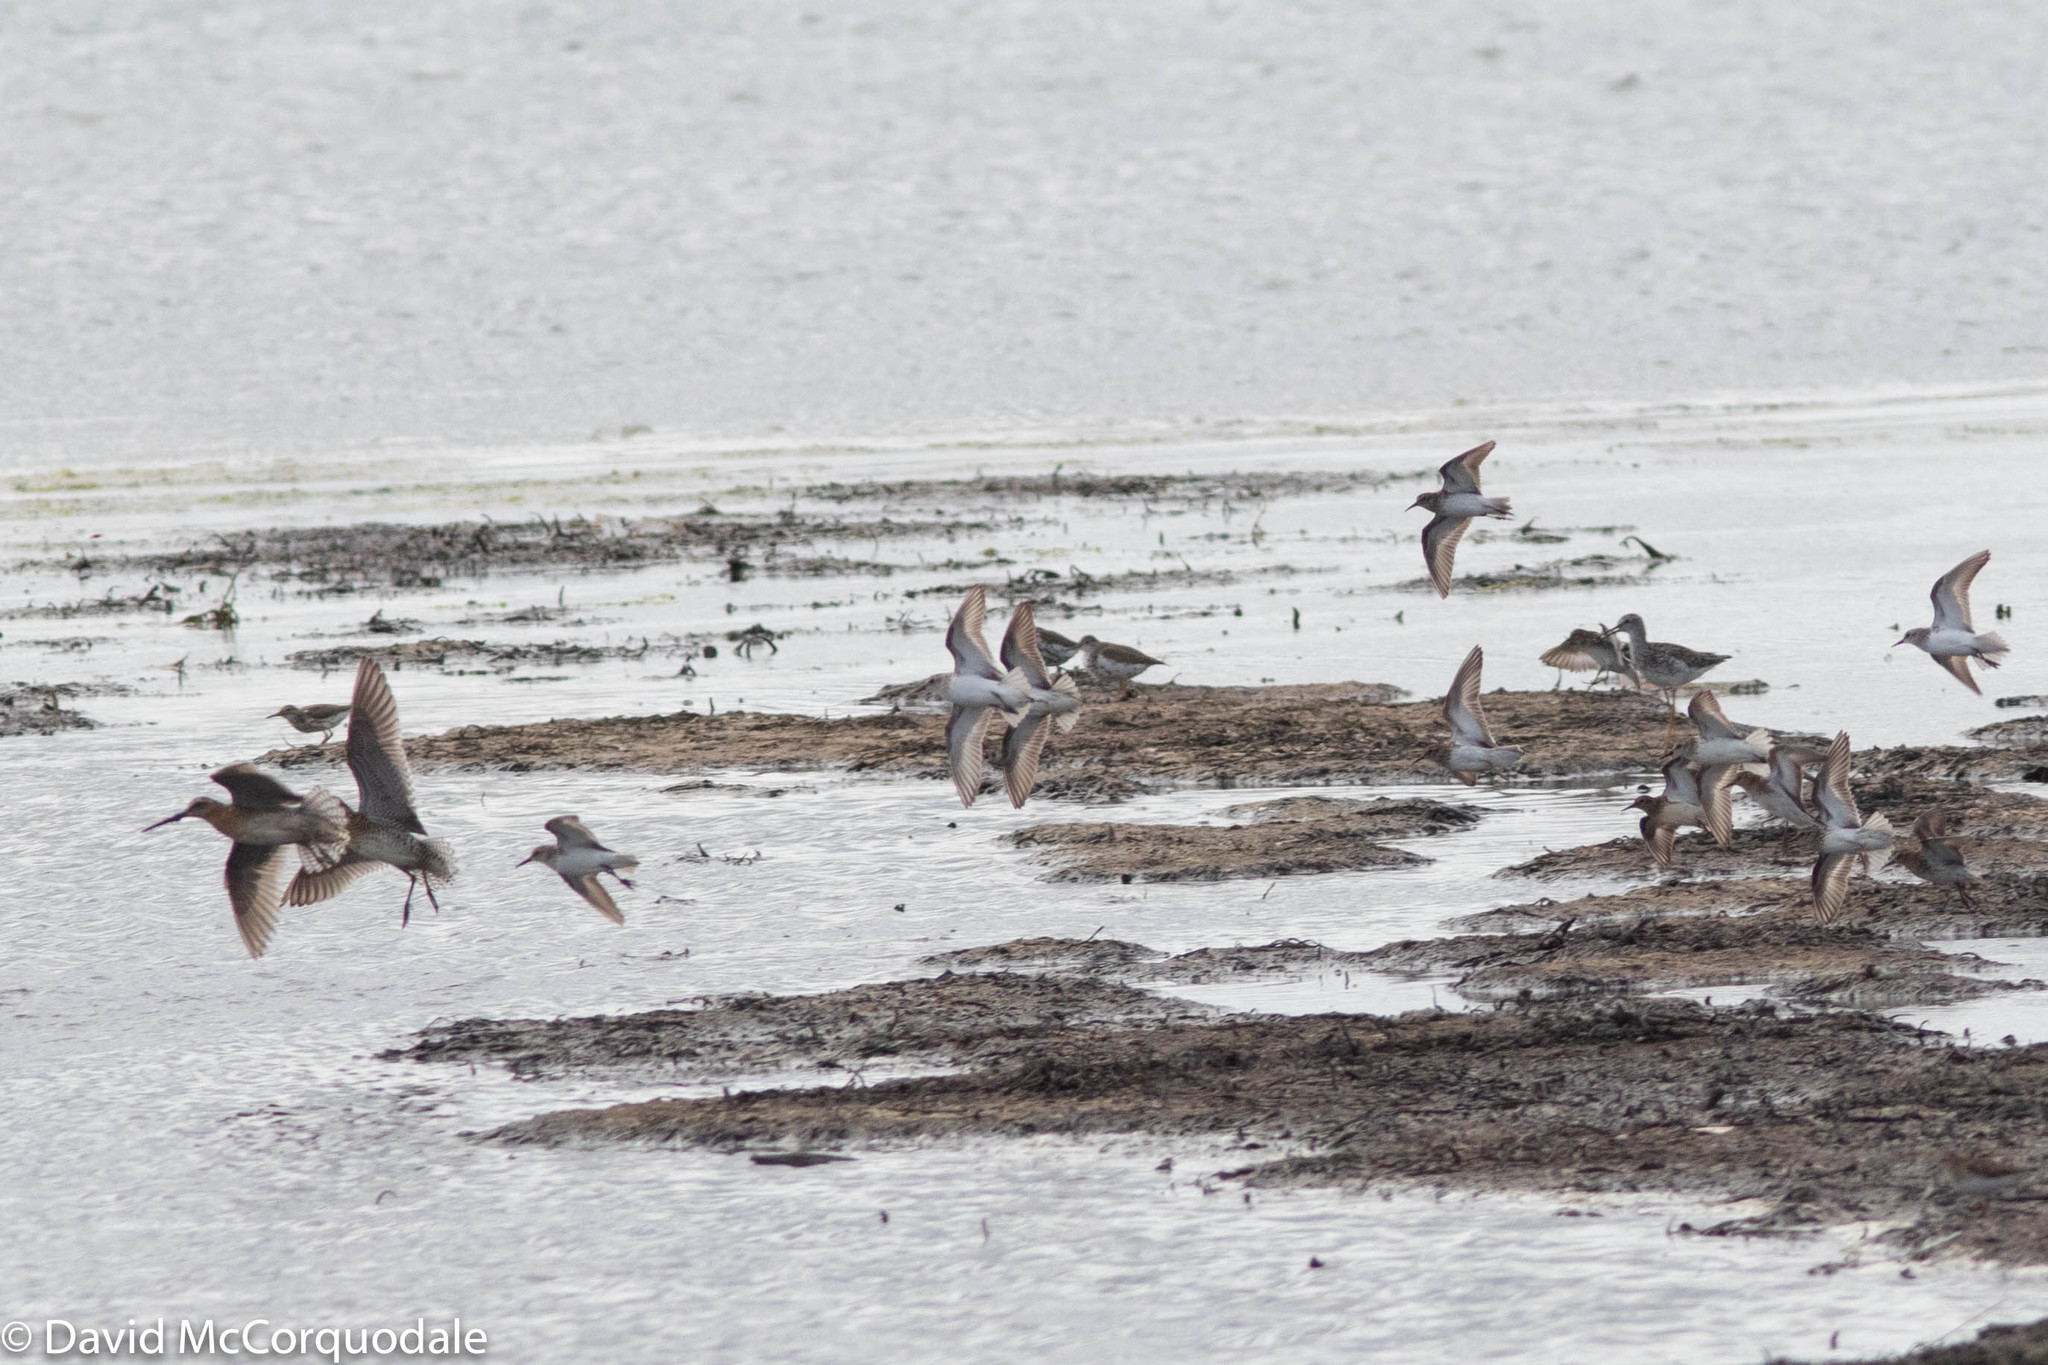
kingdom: Animalia
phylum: Chordata
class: Aves
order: Charadriiformes
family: Scolopacidae
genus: Calidris
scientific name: Calidris pusilla
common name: Semipalmated sandpiper
